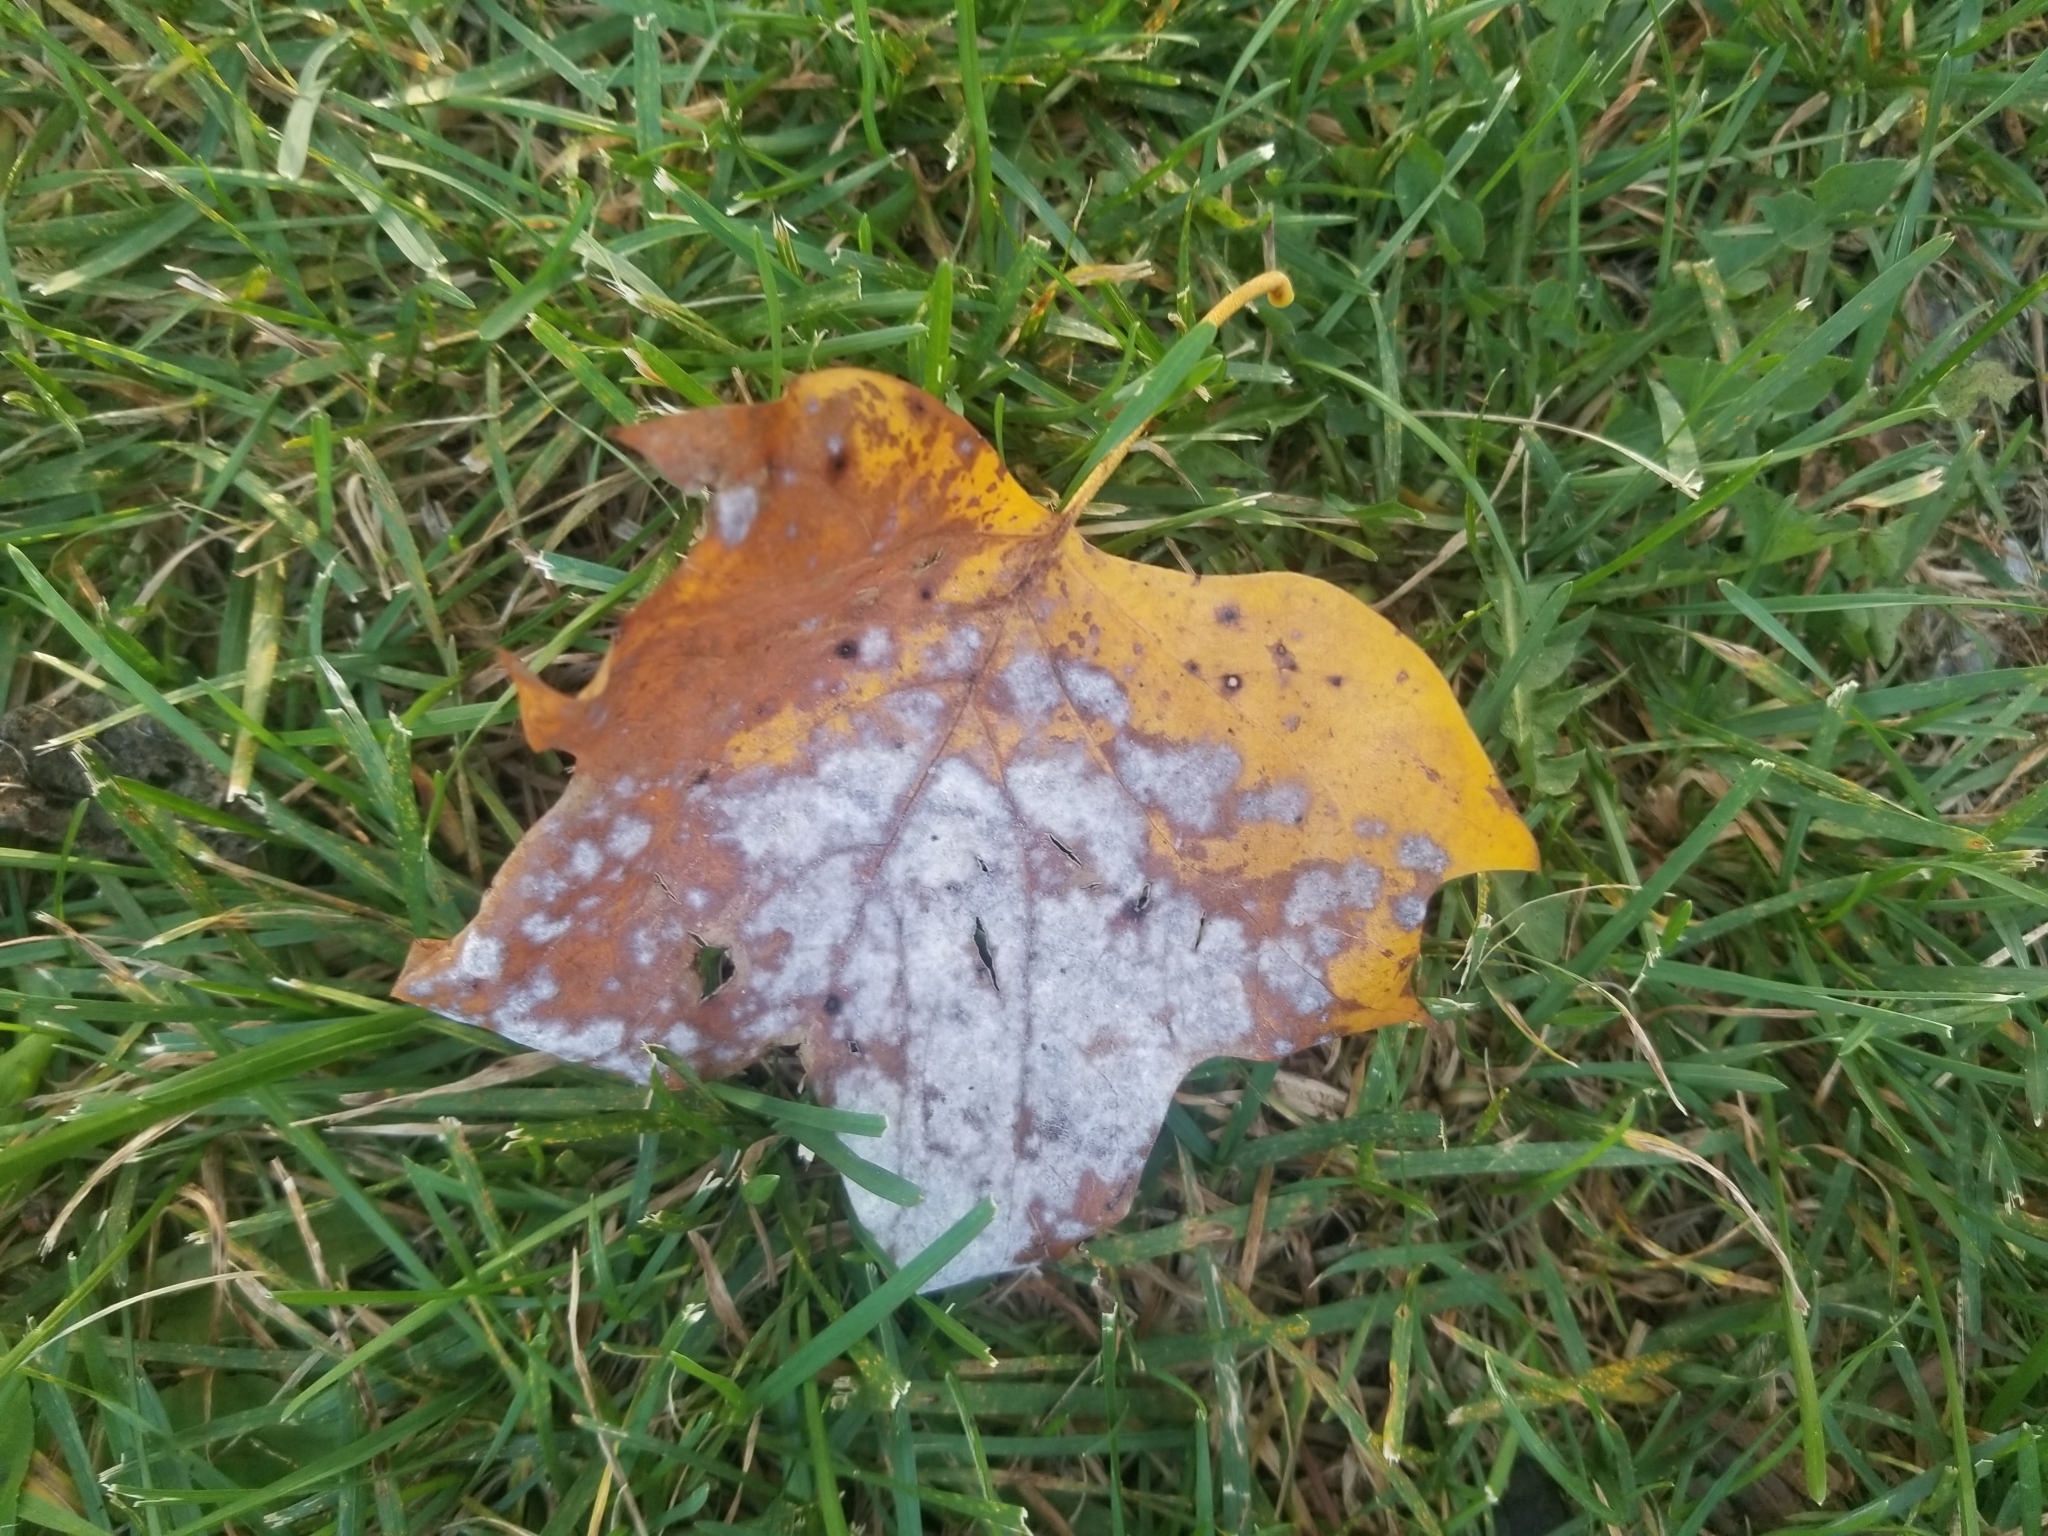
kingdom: Fungi
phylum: Ascomycota
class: Leotiomycetes
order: Helotiales
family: Erysiphaceae
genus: Erysiphe
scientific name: Erysiphe liriodendri
